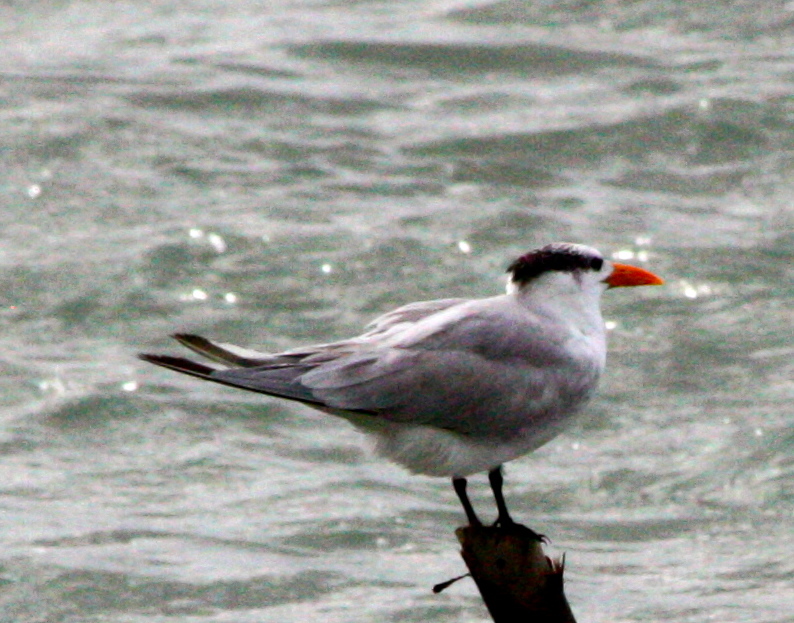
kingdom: Animalia
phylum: Chordata
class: Aves
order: Charadriiformes
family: Laridae
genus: Thalasseus
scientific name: Thalasseus maximus
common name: Royal tern
